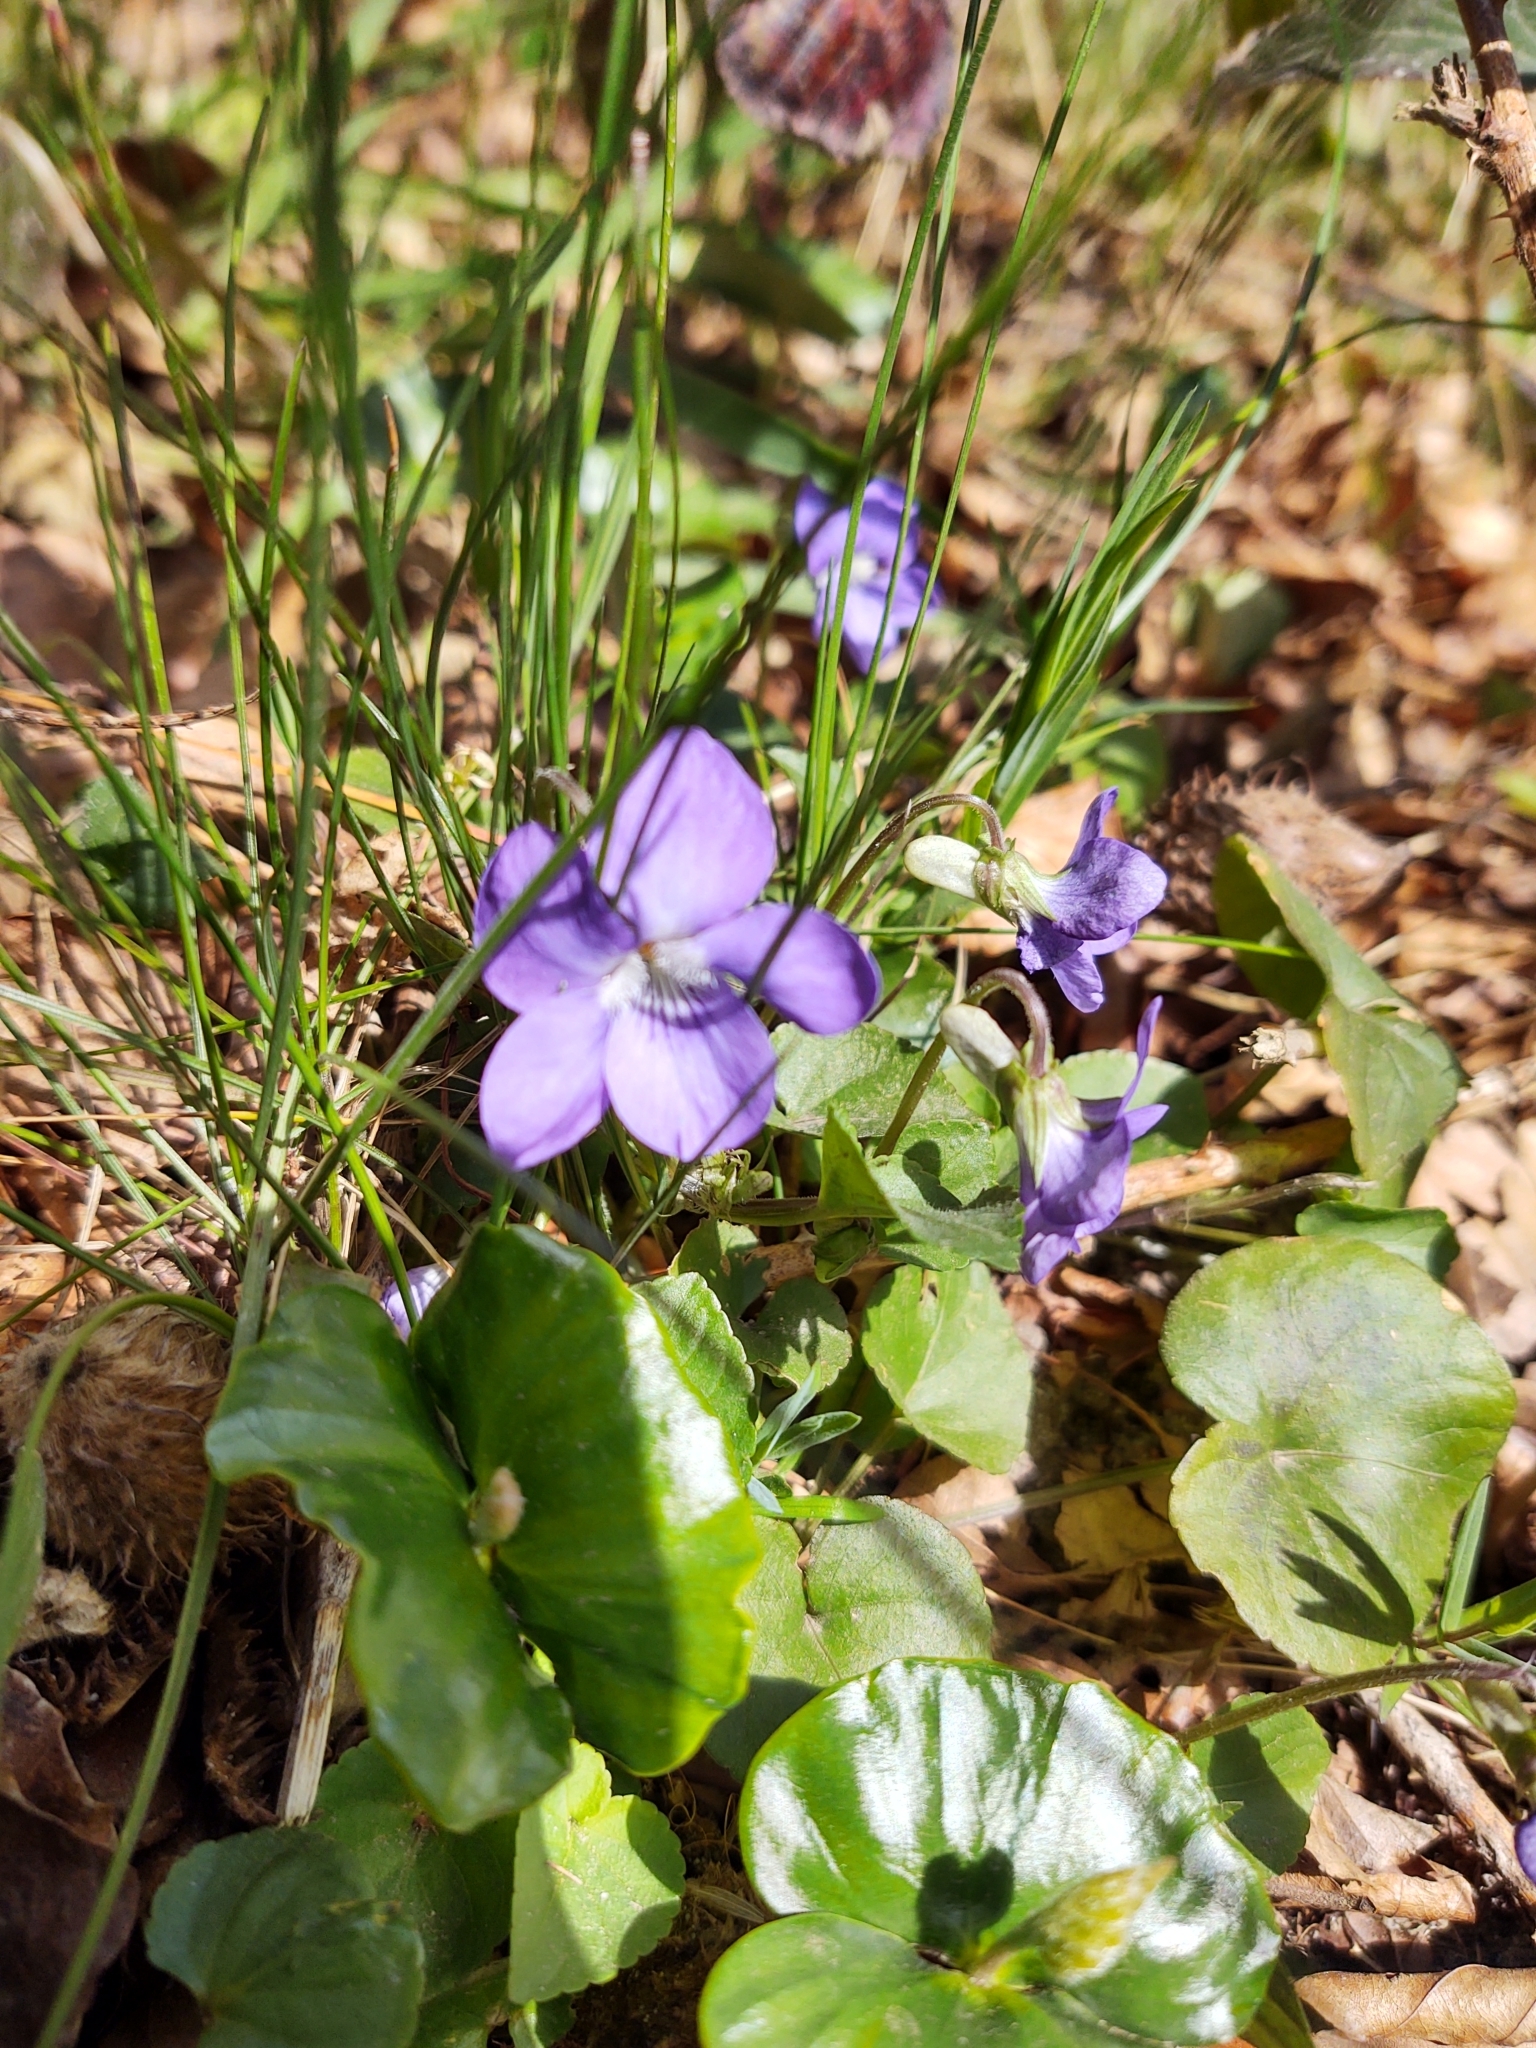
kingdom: Plantae
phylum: Tracheophyta
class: Magnoliopsida
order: Malpighiales
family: Violaceae
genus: Viola
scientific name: Viola riviniana
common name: Common dog-violet
